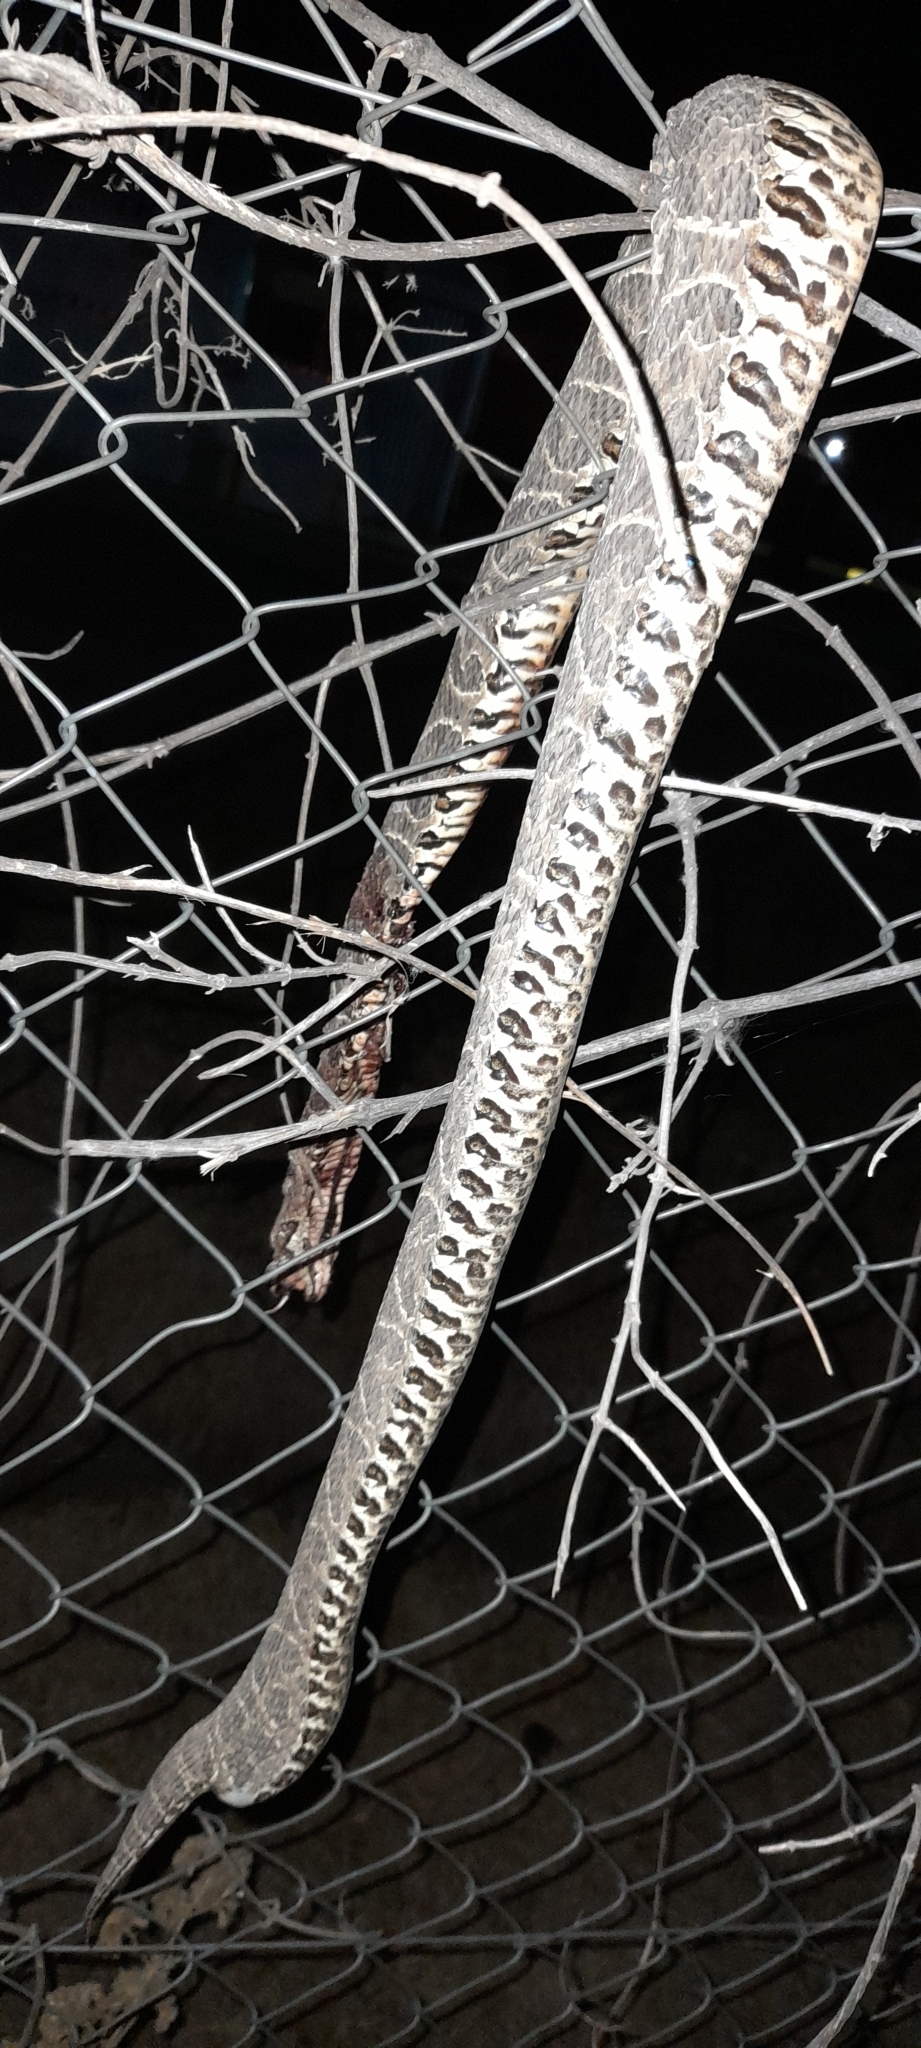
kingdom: Animalia
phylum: Chordata
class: Squamata
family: Viperidae
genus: Bothrops
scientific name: Bothrops alternatus
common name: Urutu
